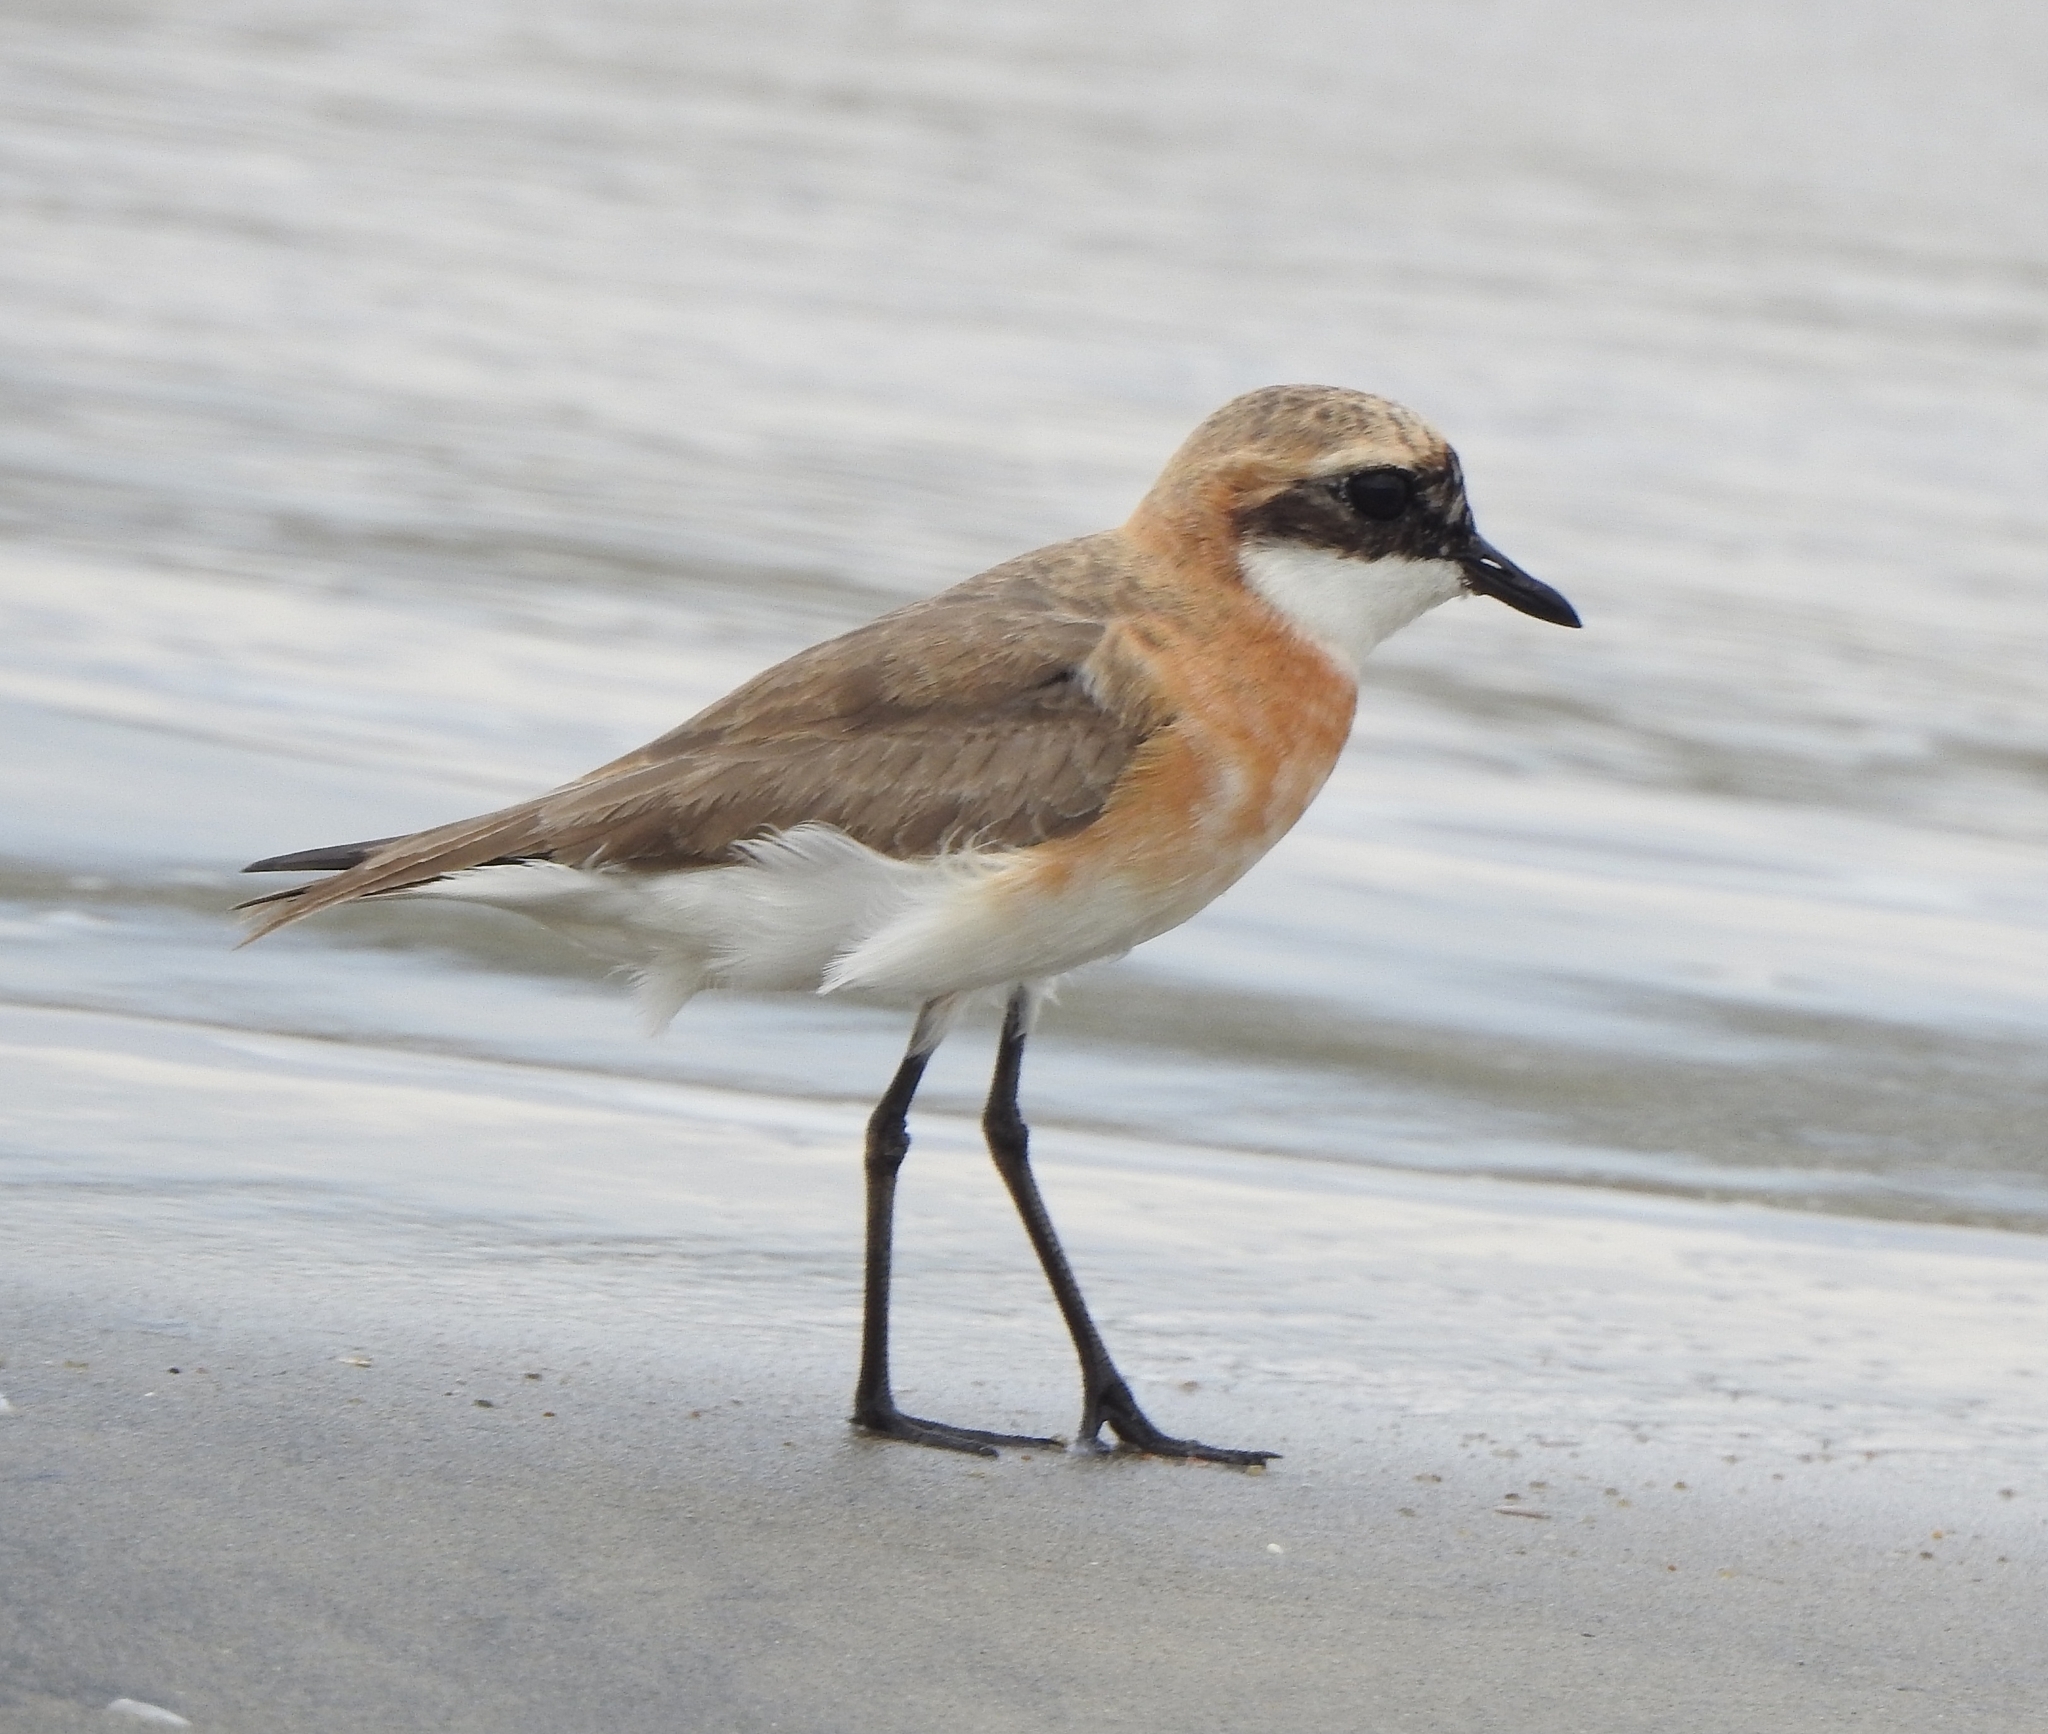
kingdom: Animalia
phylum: Chordata
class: Aves
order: Charadriiformes
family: Charadriidae
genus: Anarhynchus
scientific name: Anarhynchus
